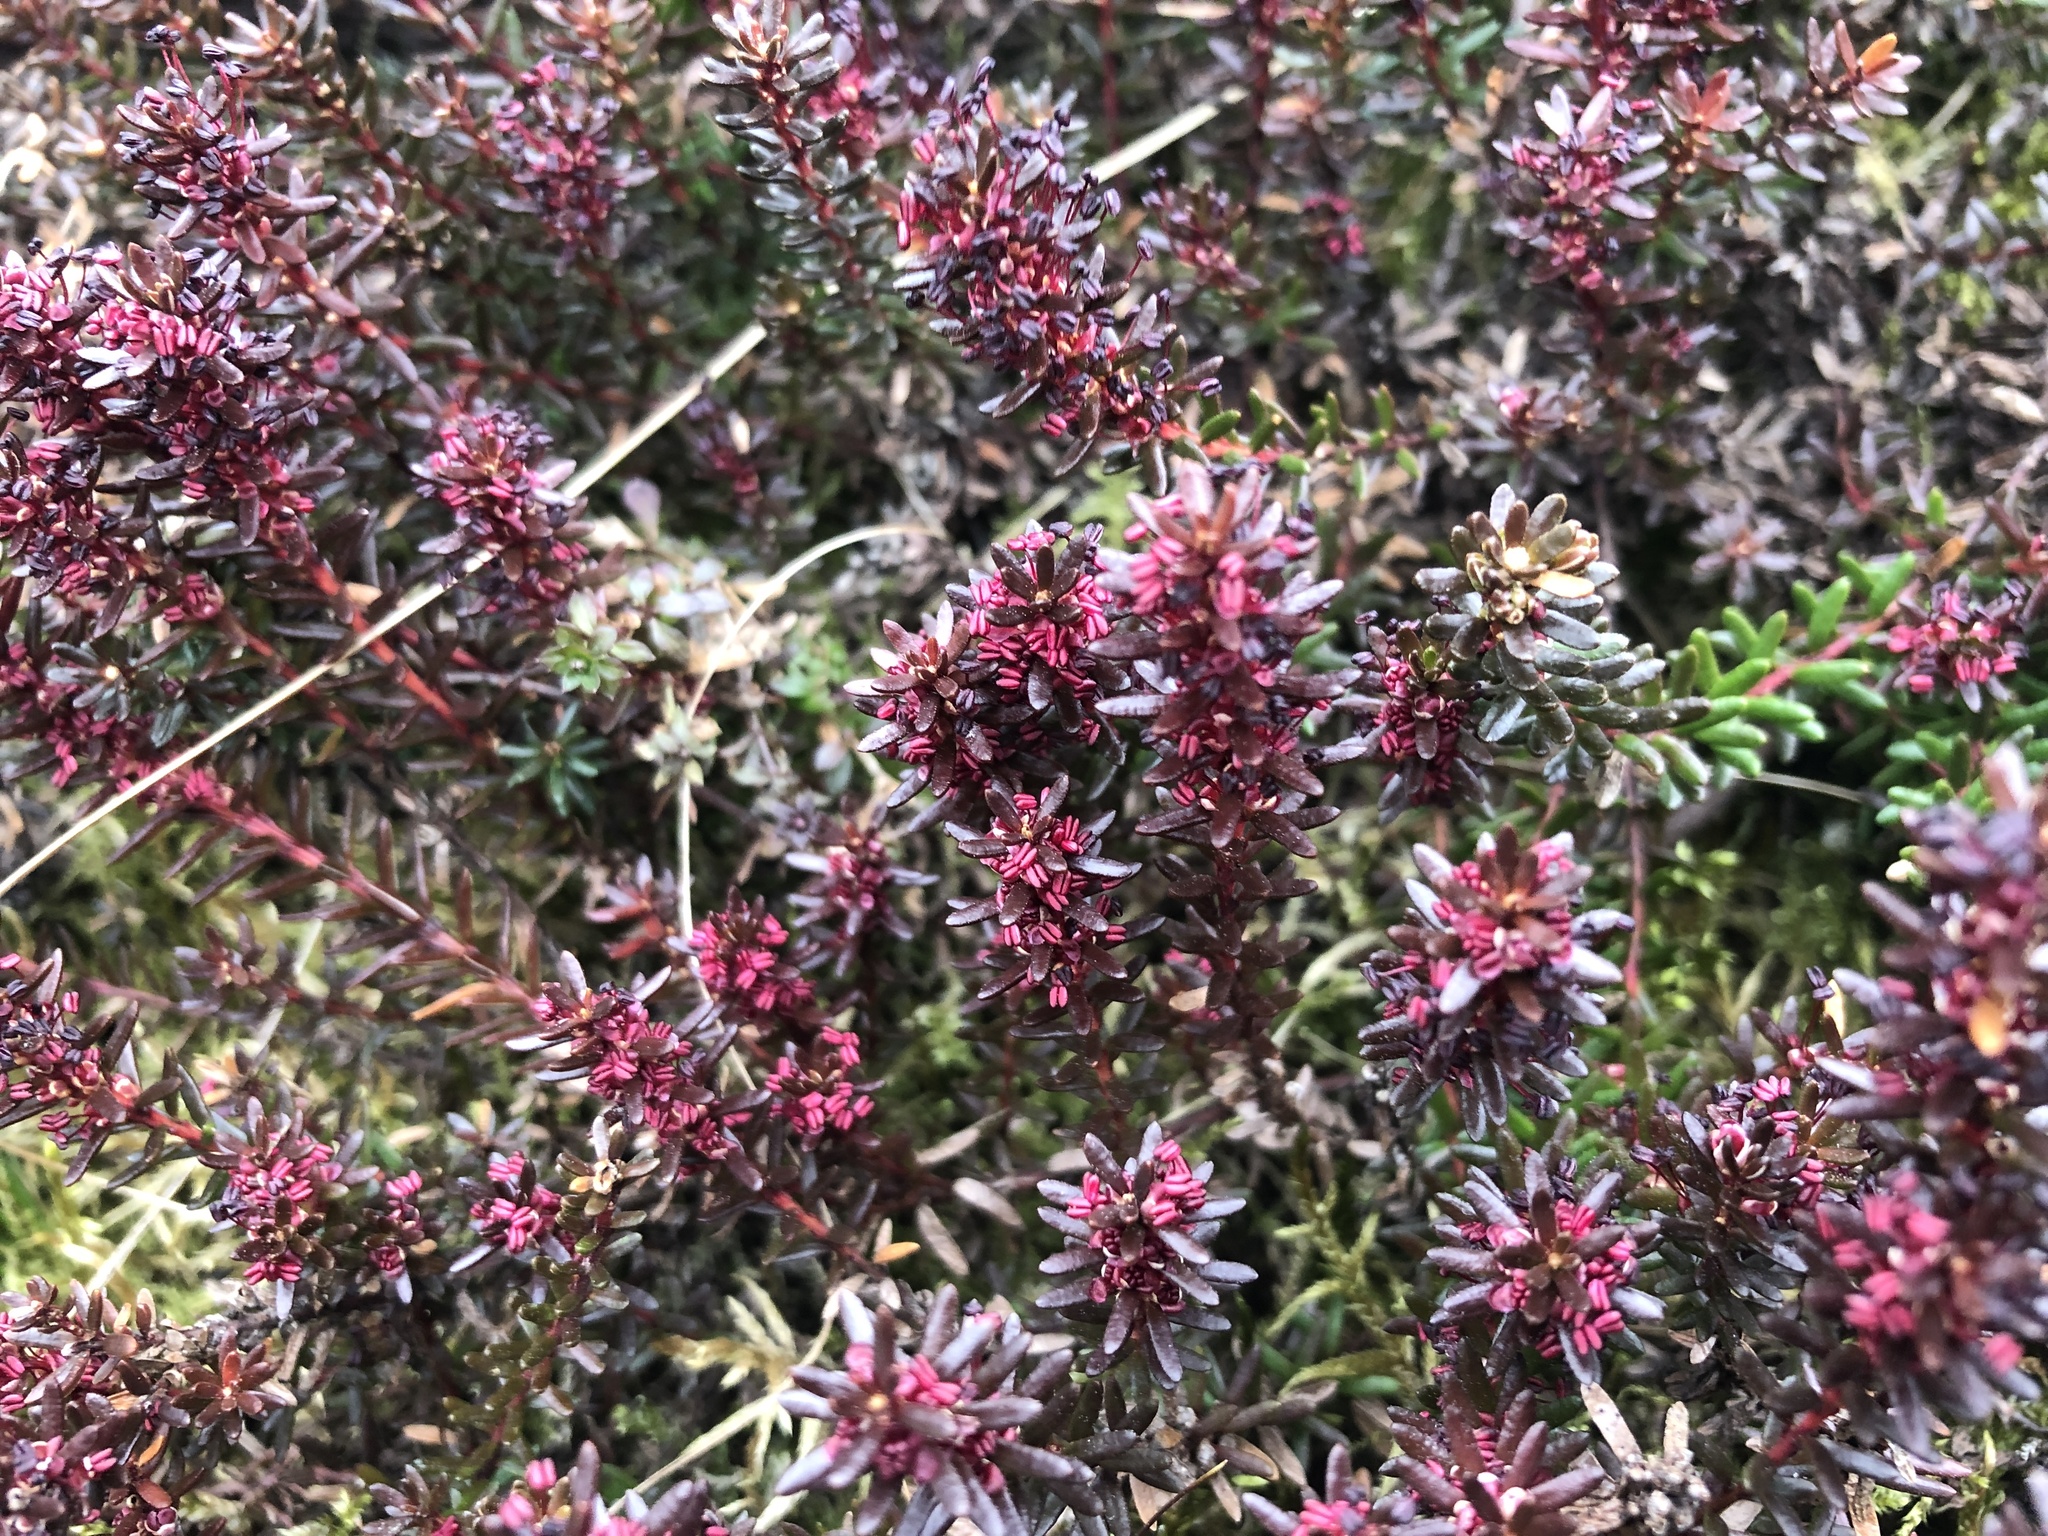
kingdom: Plantae
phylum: Tracheophyta
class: Magnoliopsida
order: Ericales
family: Ericaceae
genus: Empetrum
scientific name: Empetrum nigrum
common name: Black crowberry
